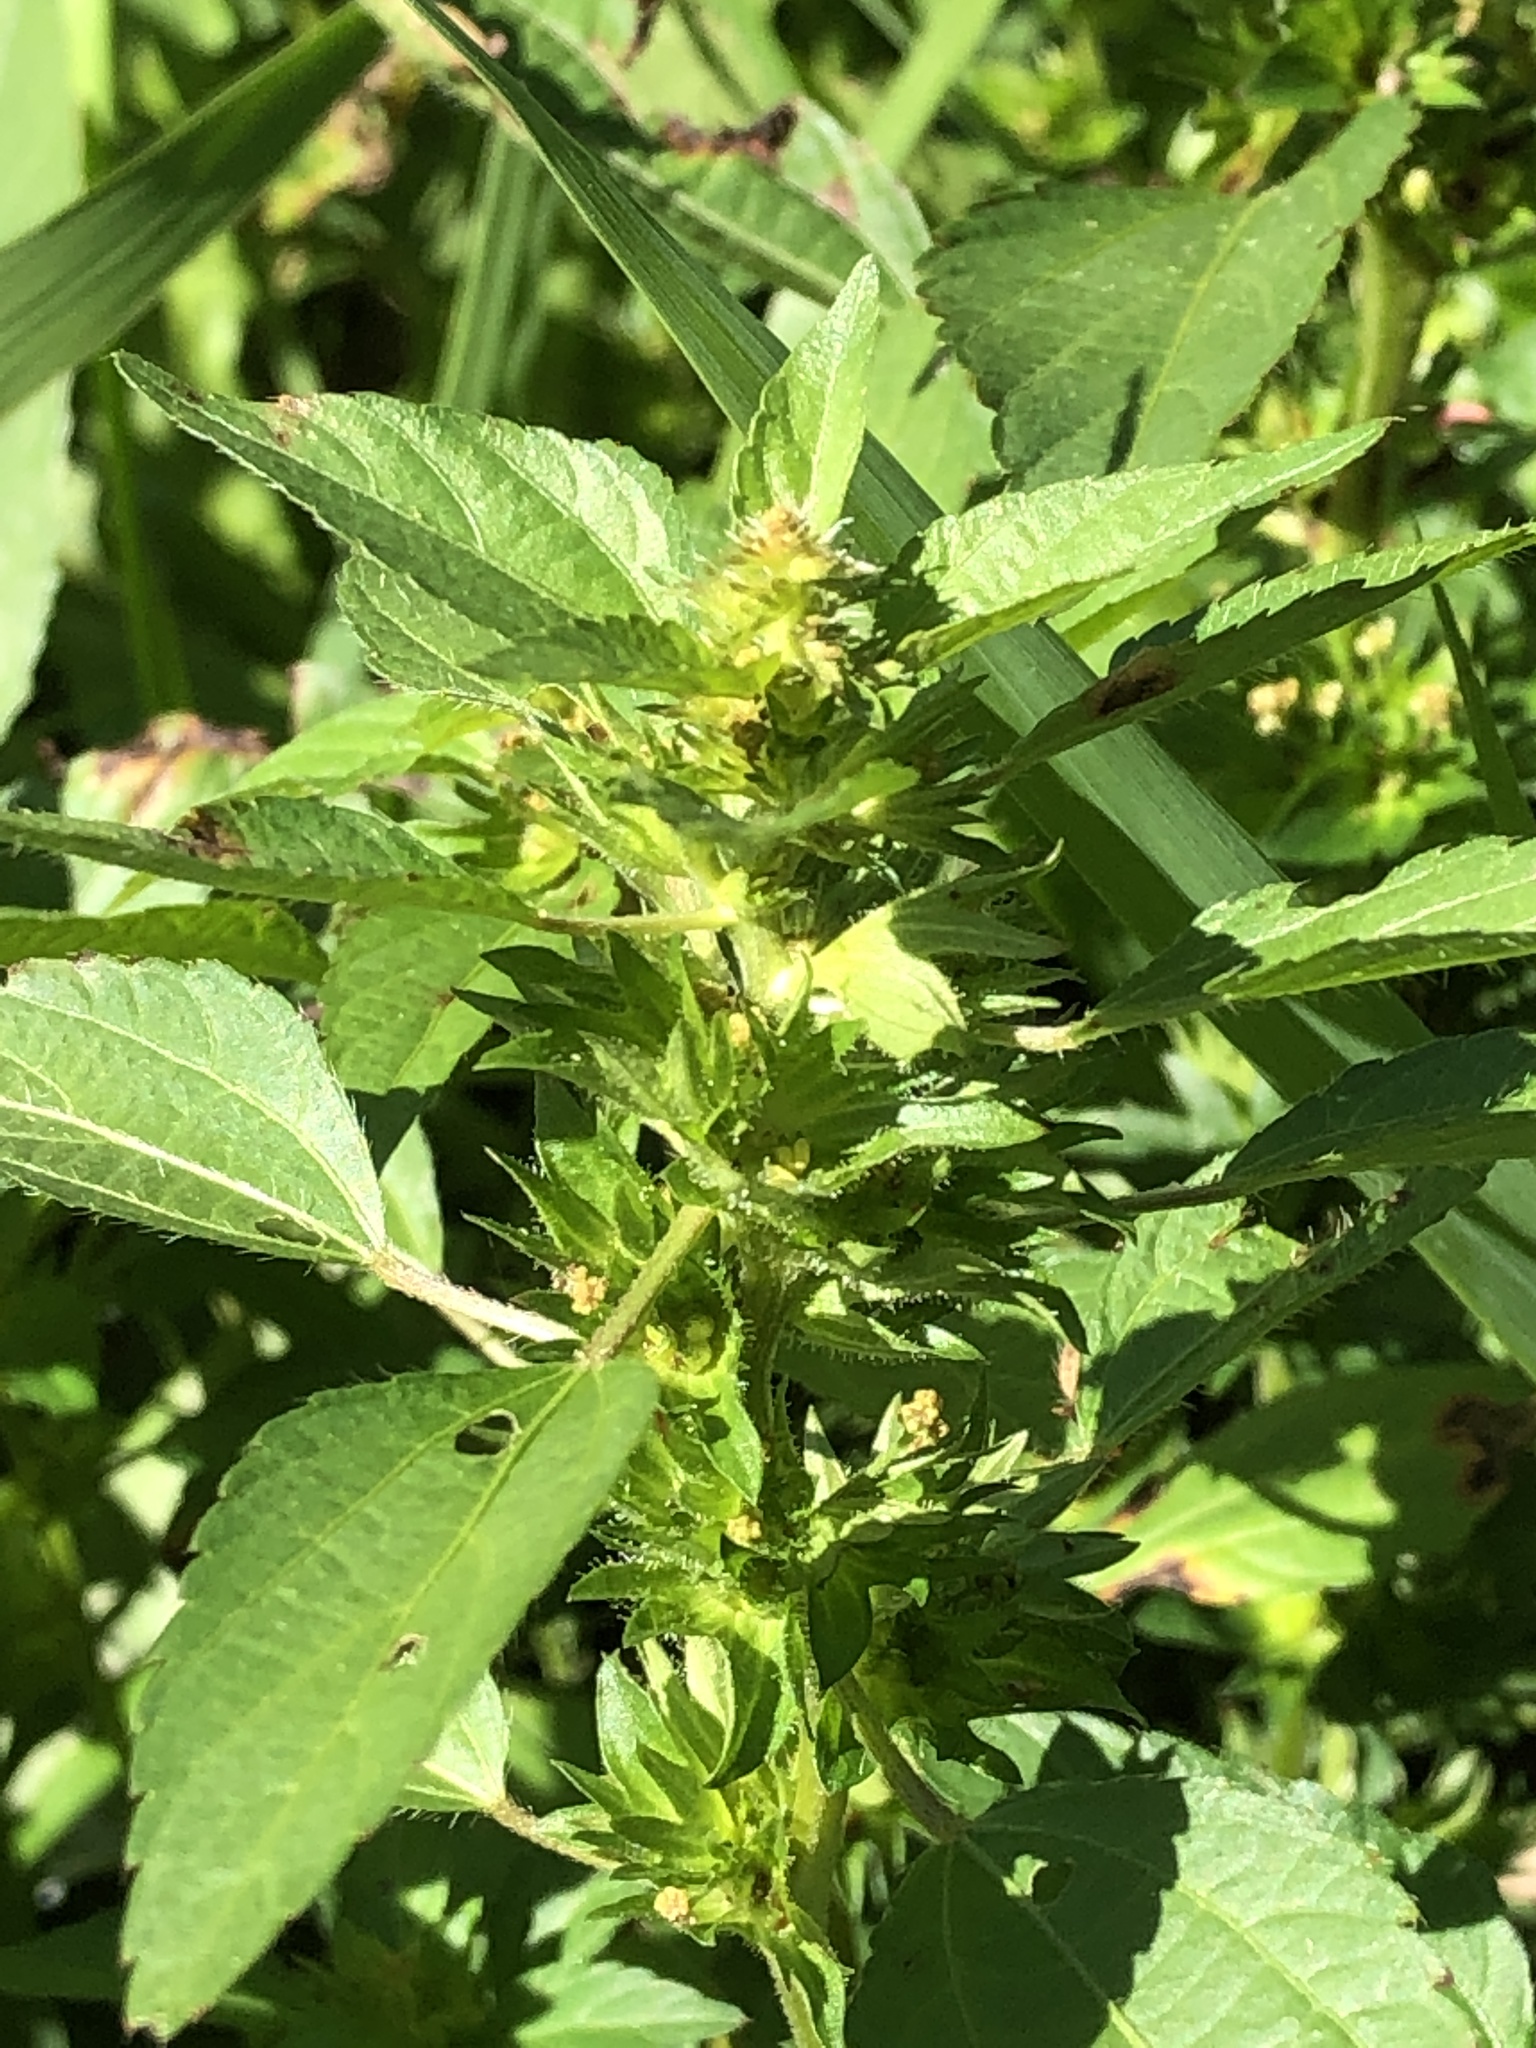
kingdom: Plantae
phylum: Tracheophyta
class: Magnoliopsida
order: Malpighiales
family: Euphorbiaceae
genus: Acalypha
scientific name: Acalypha rhomboidea
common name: Rhombic copperleaf
